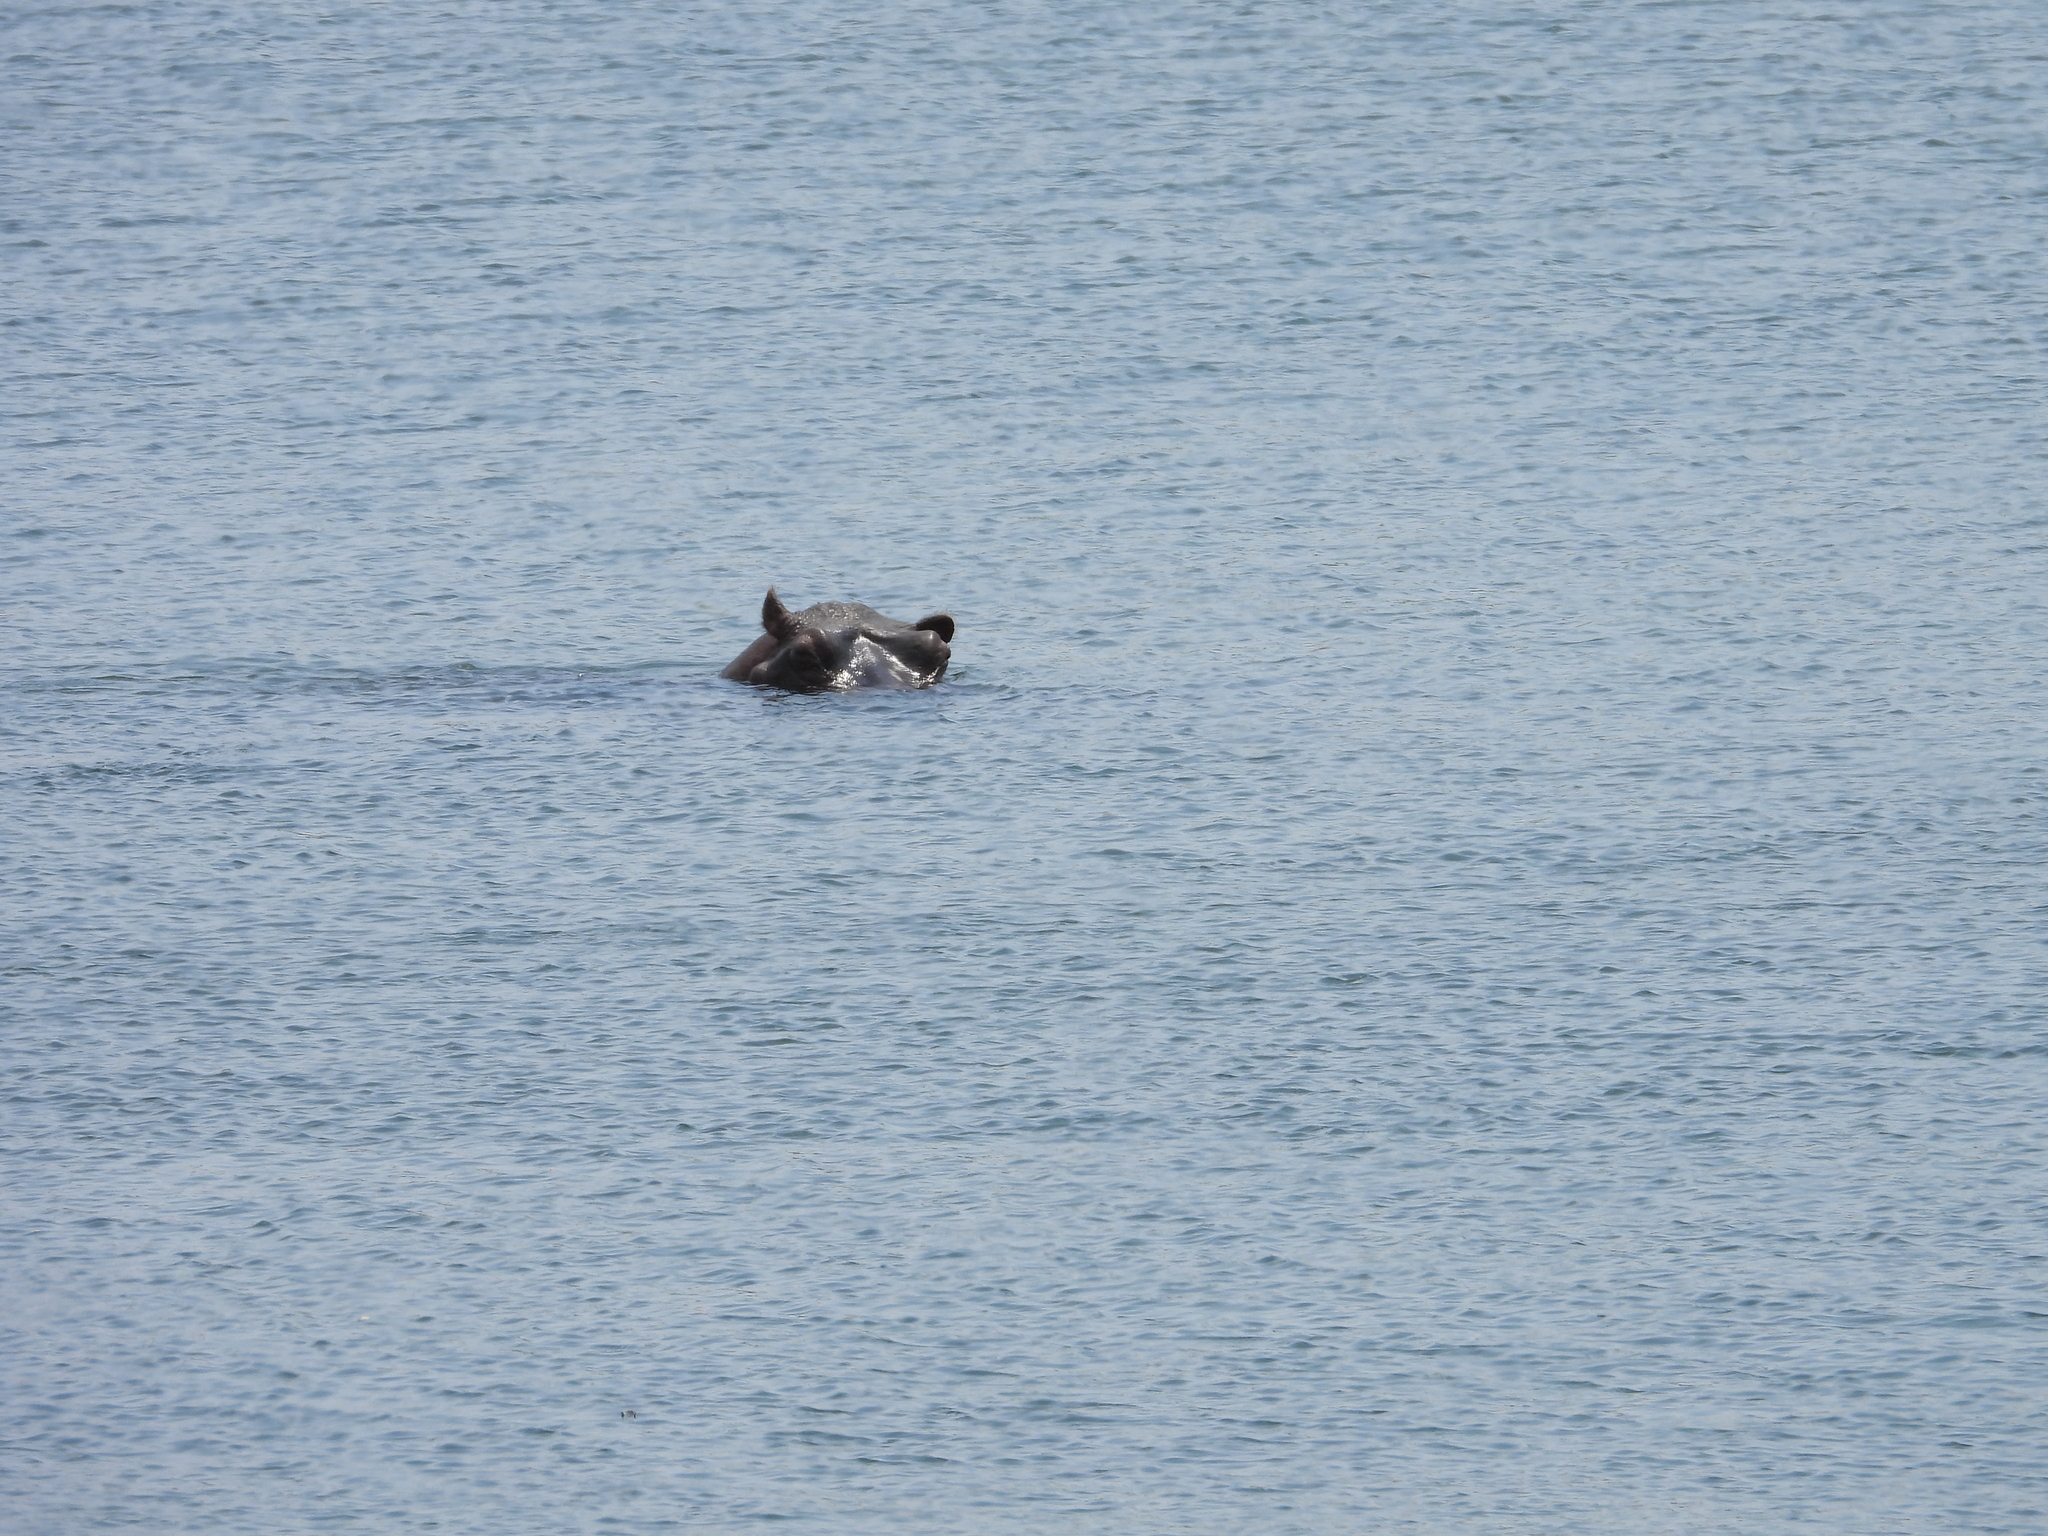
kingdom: Animalia
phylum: Chordata
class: Mammalia
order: Artiodactyla
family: Hippopotamidae
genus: Hippopotamus
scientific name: Hippopotamus amphibius
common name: Common hippopotamus
